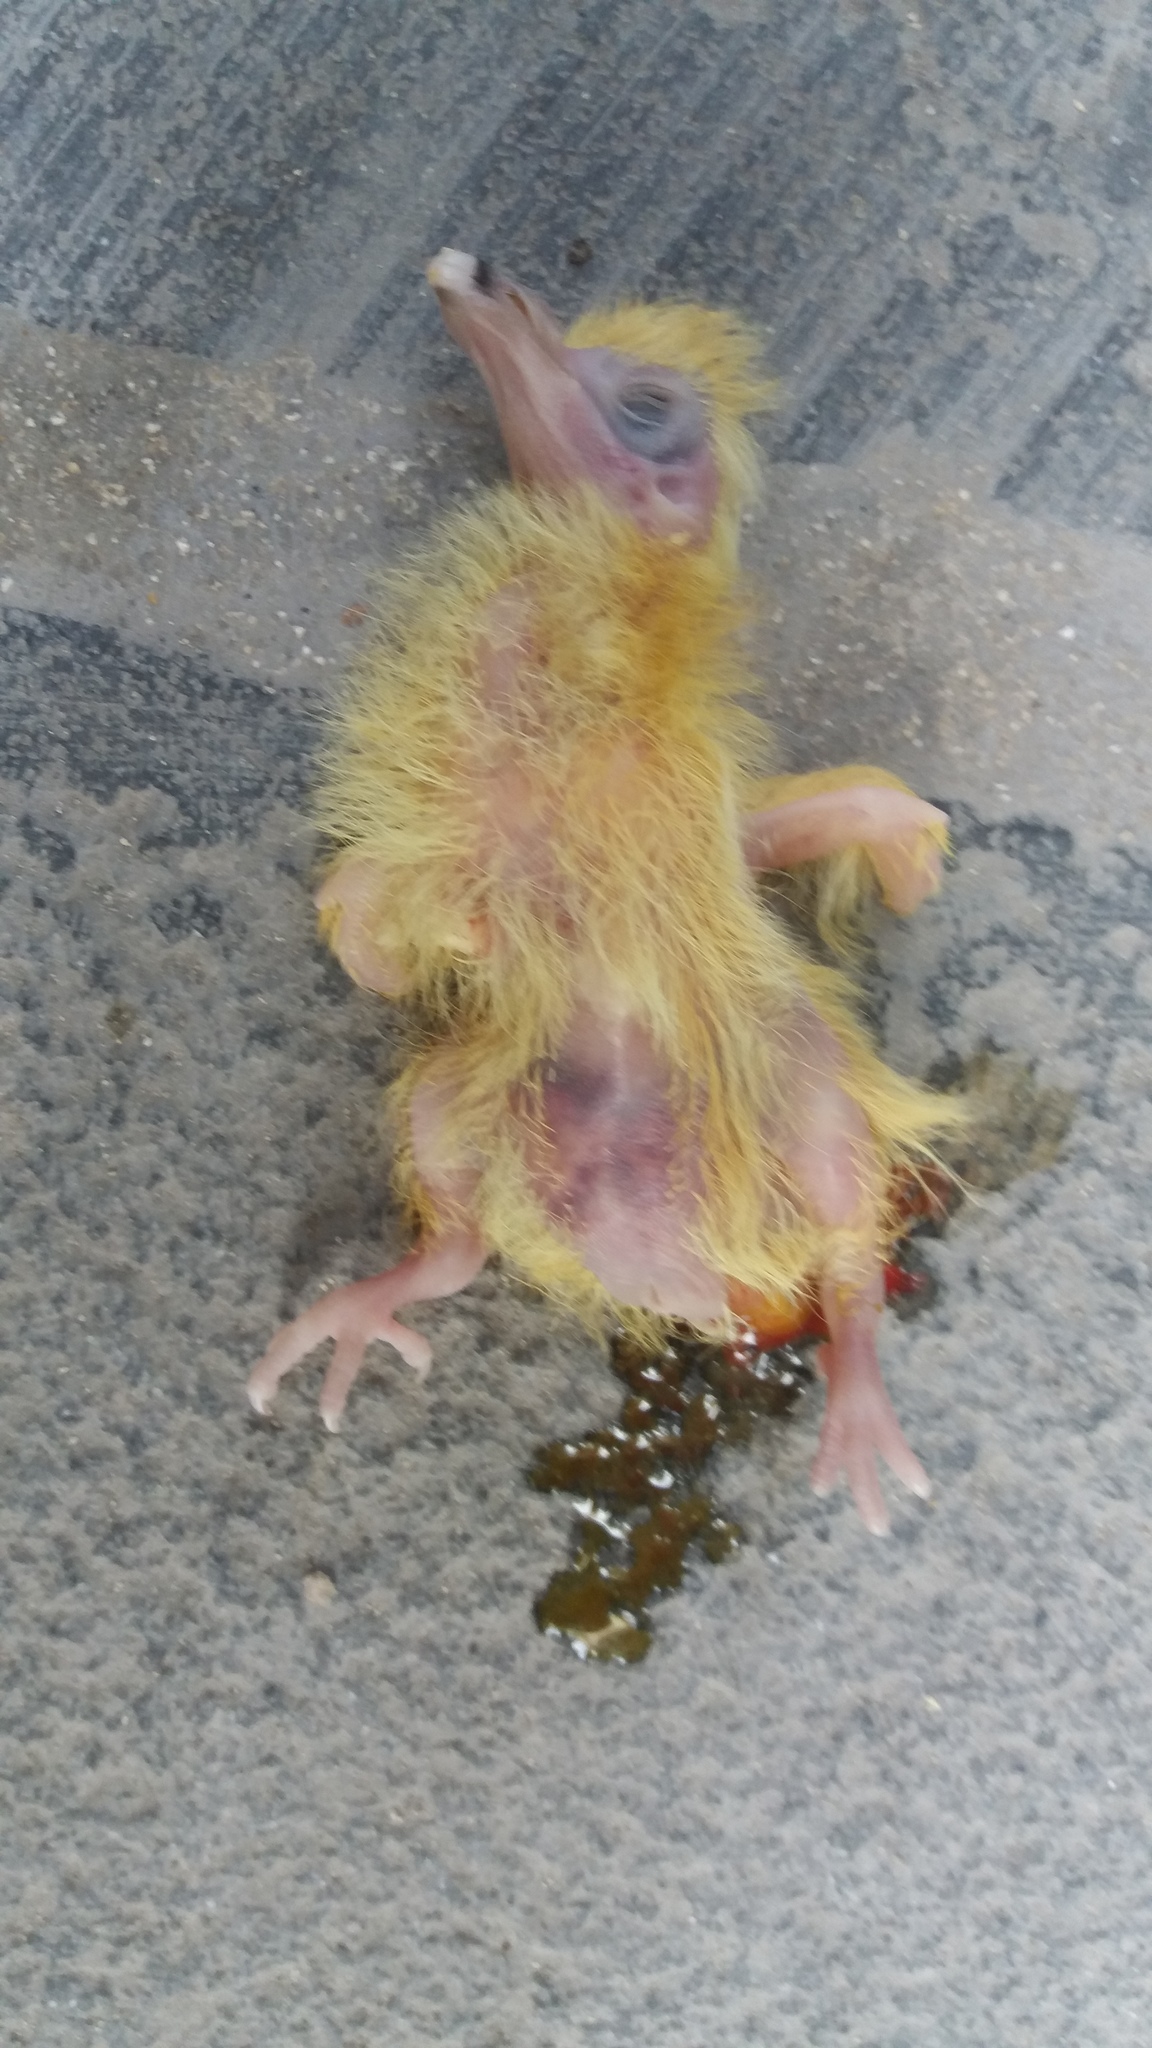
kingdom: Animalia
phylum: Chordata
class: Aves
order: Columbiformes
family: Columbidae
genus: Columba
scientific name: Columba livia
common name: Rock pigeon
